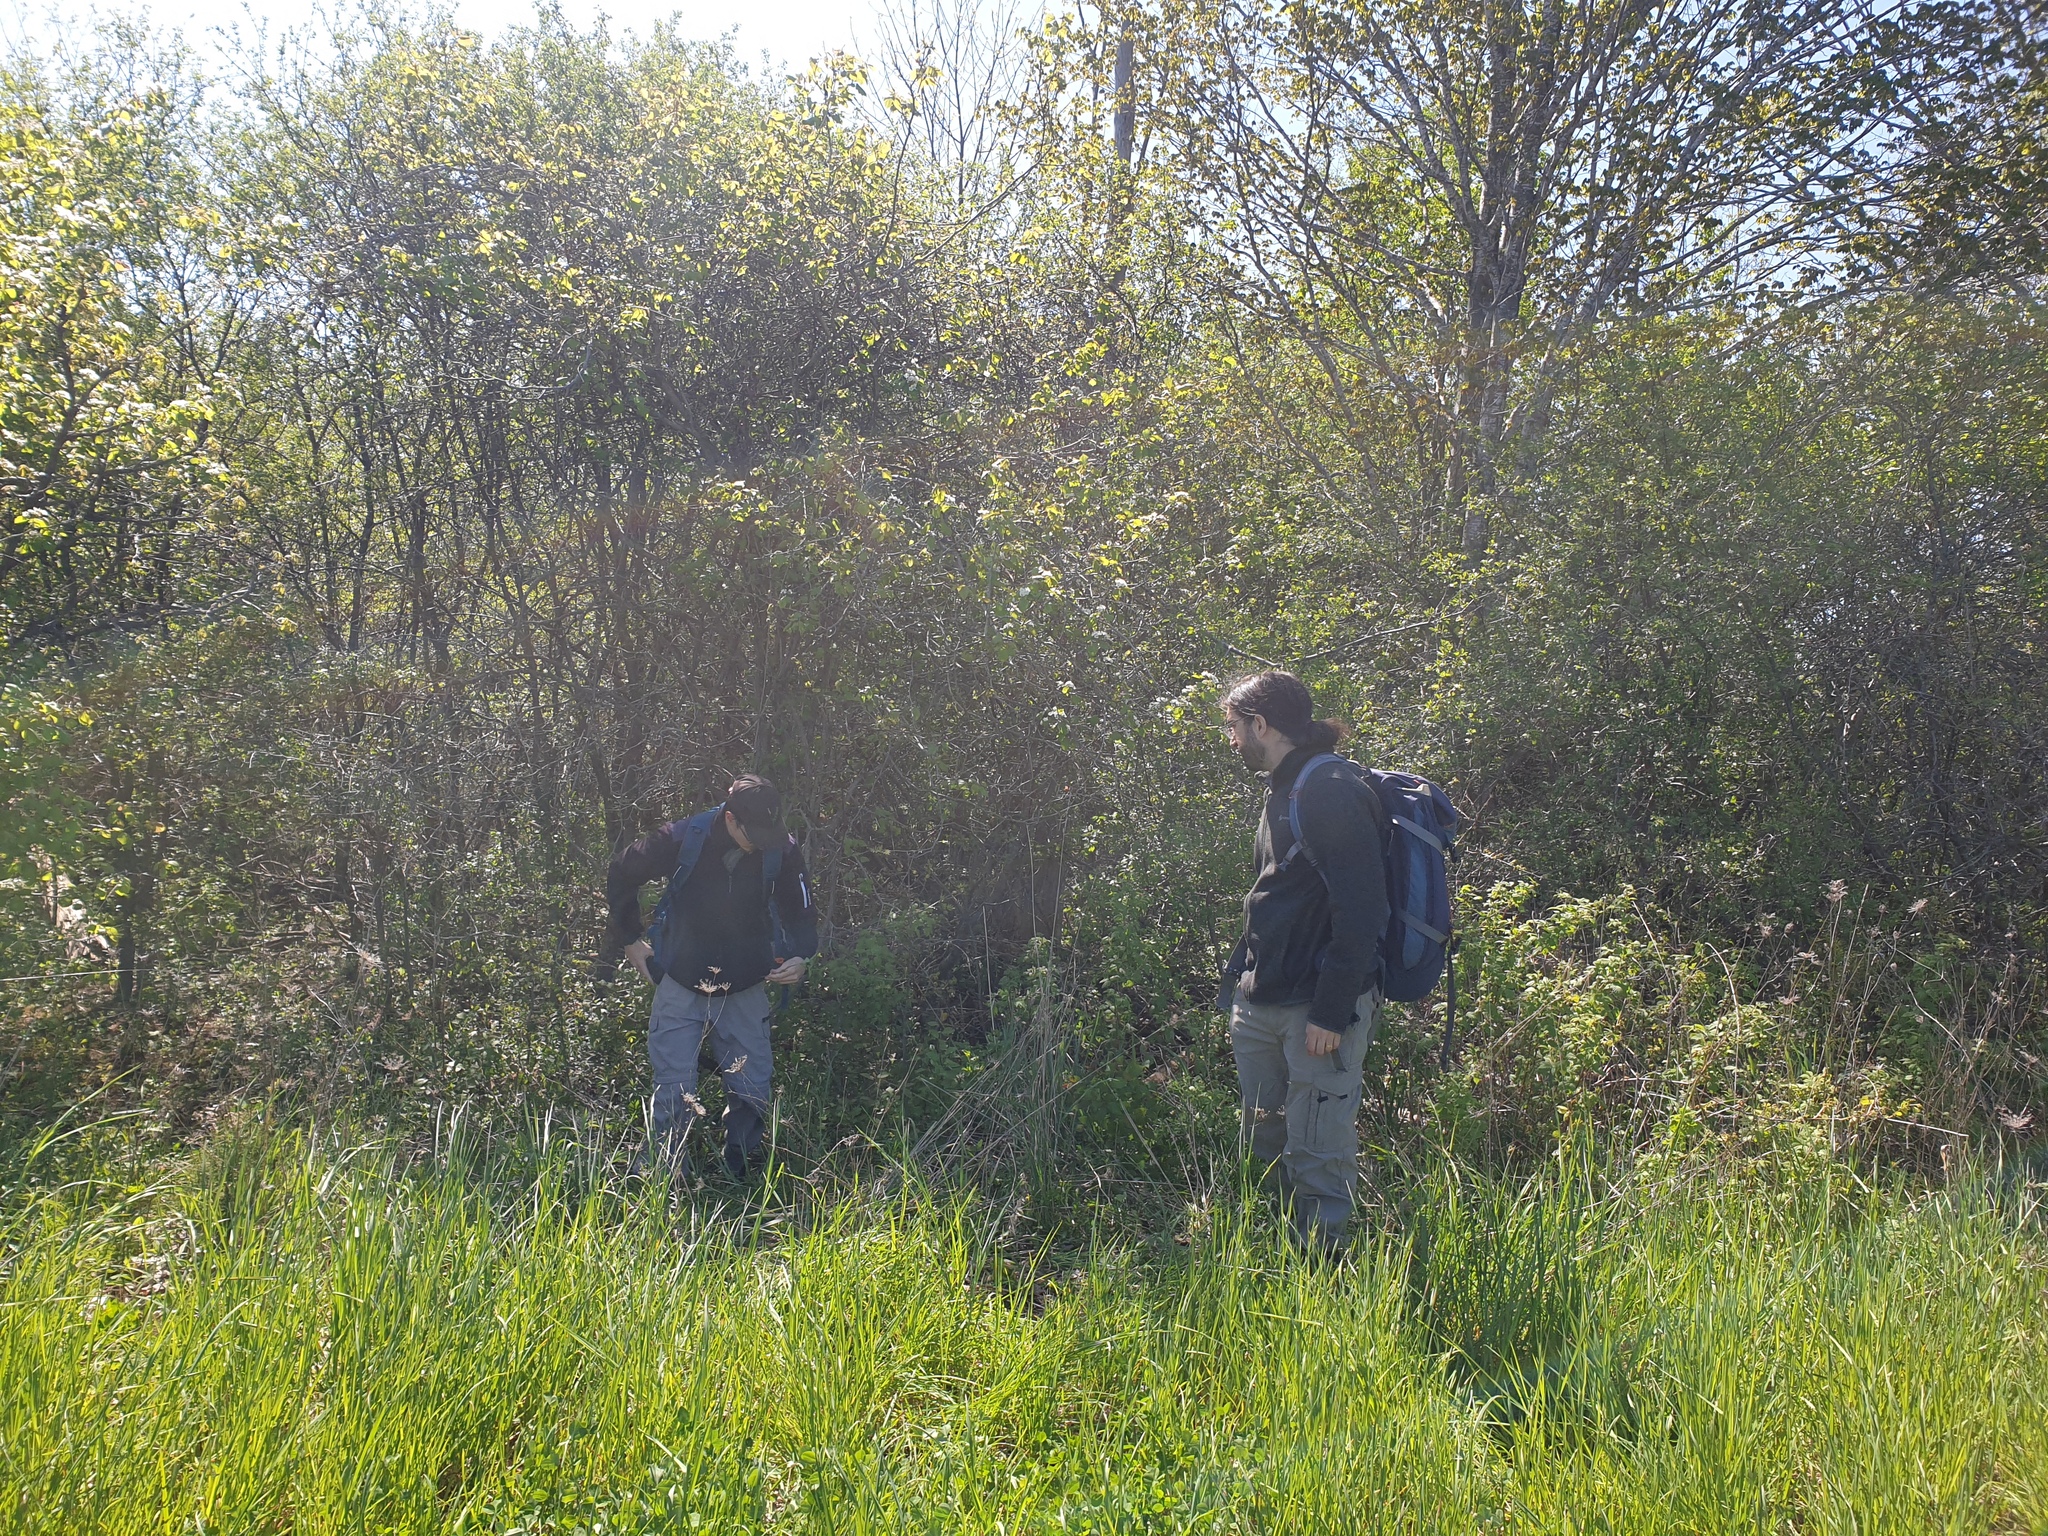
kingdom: Plantae
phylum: Tracheophyta
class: Magnoliopsida
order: Rosales
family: Rosaceae
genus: Crataegus
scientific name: Crataegus succulenta
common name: Fleshy hawthorn
